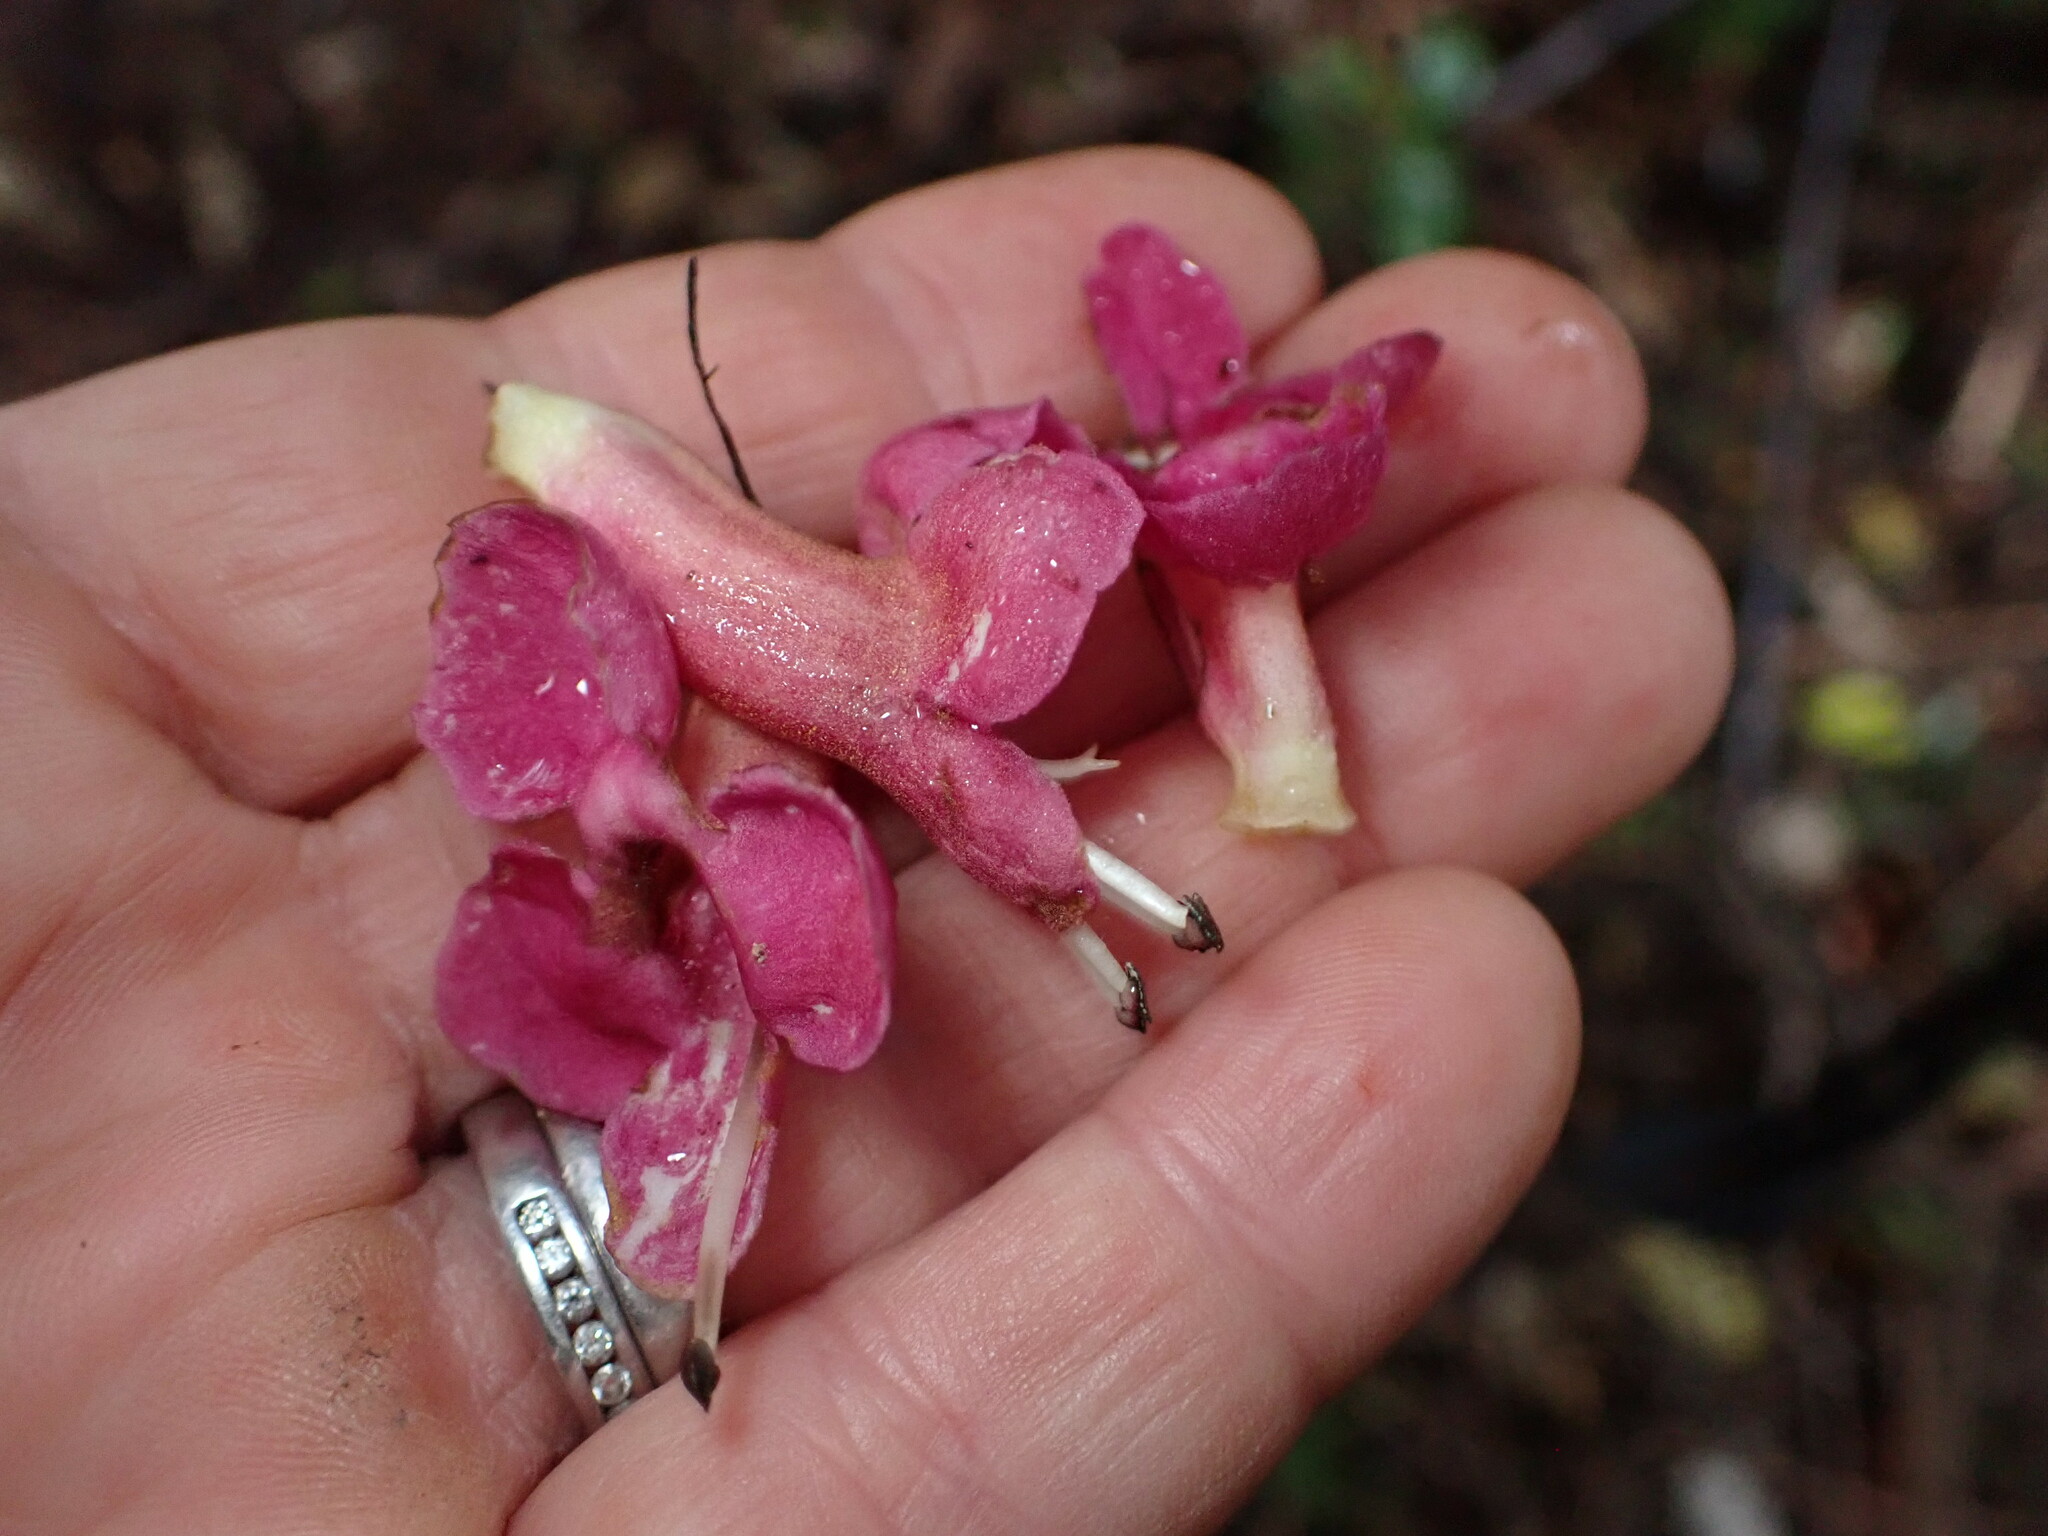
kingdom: Plantae
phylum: Tracheophyta
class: Magnoliopsida
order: Lamiales
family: Lamiaceae
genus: Vitex
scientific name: Vitex lucens
